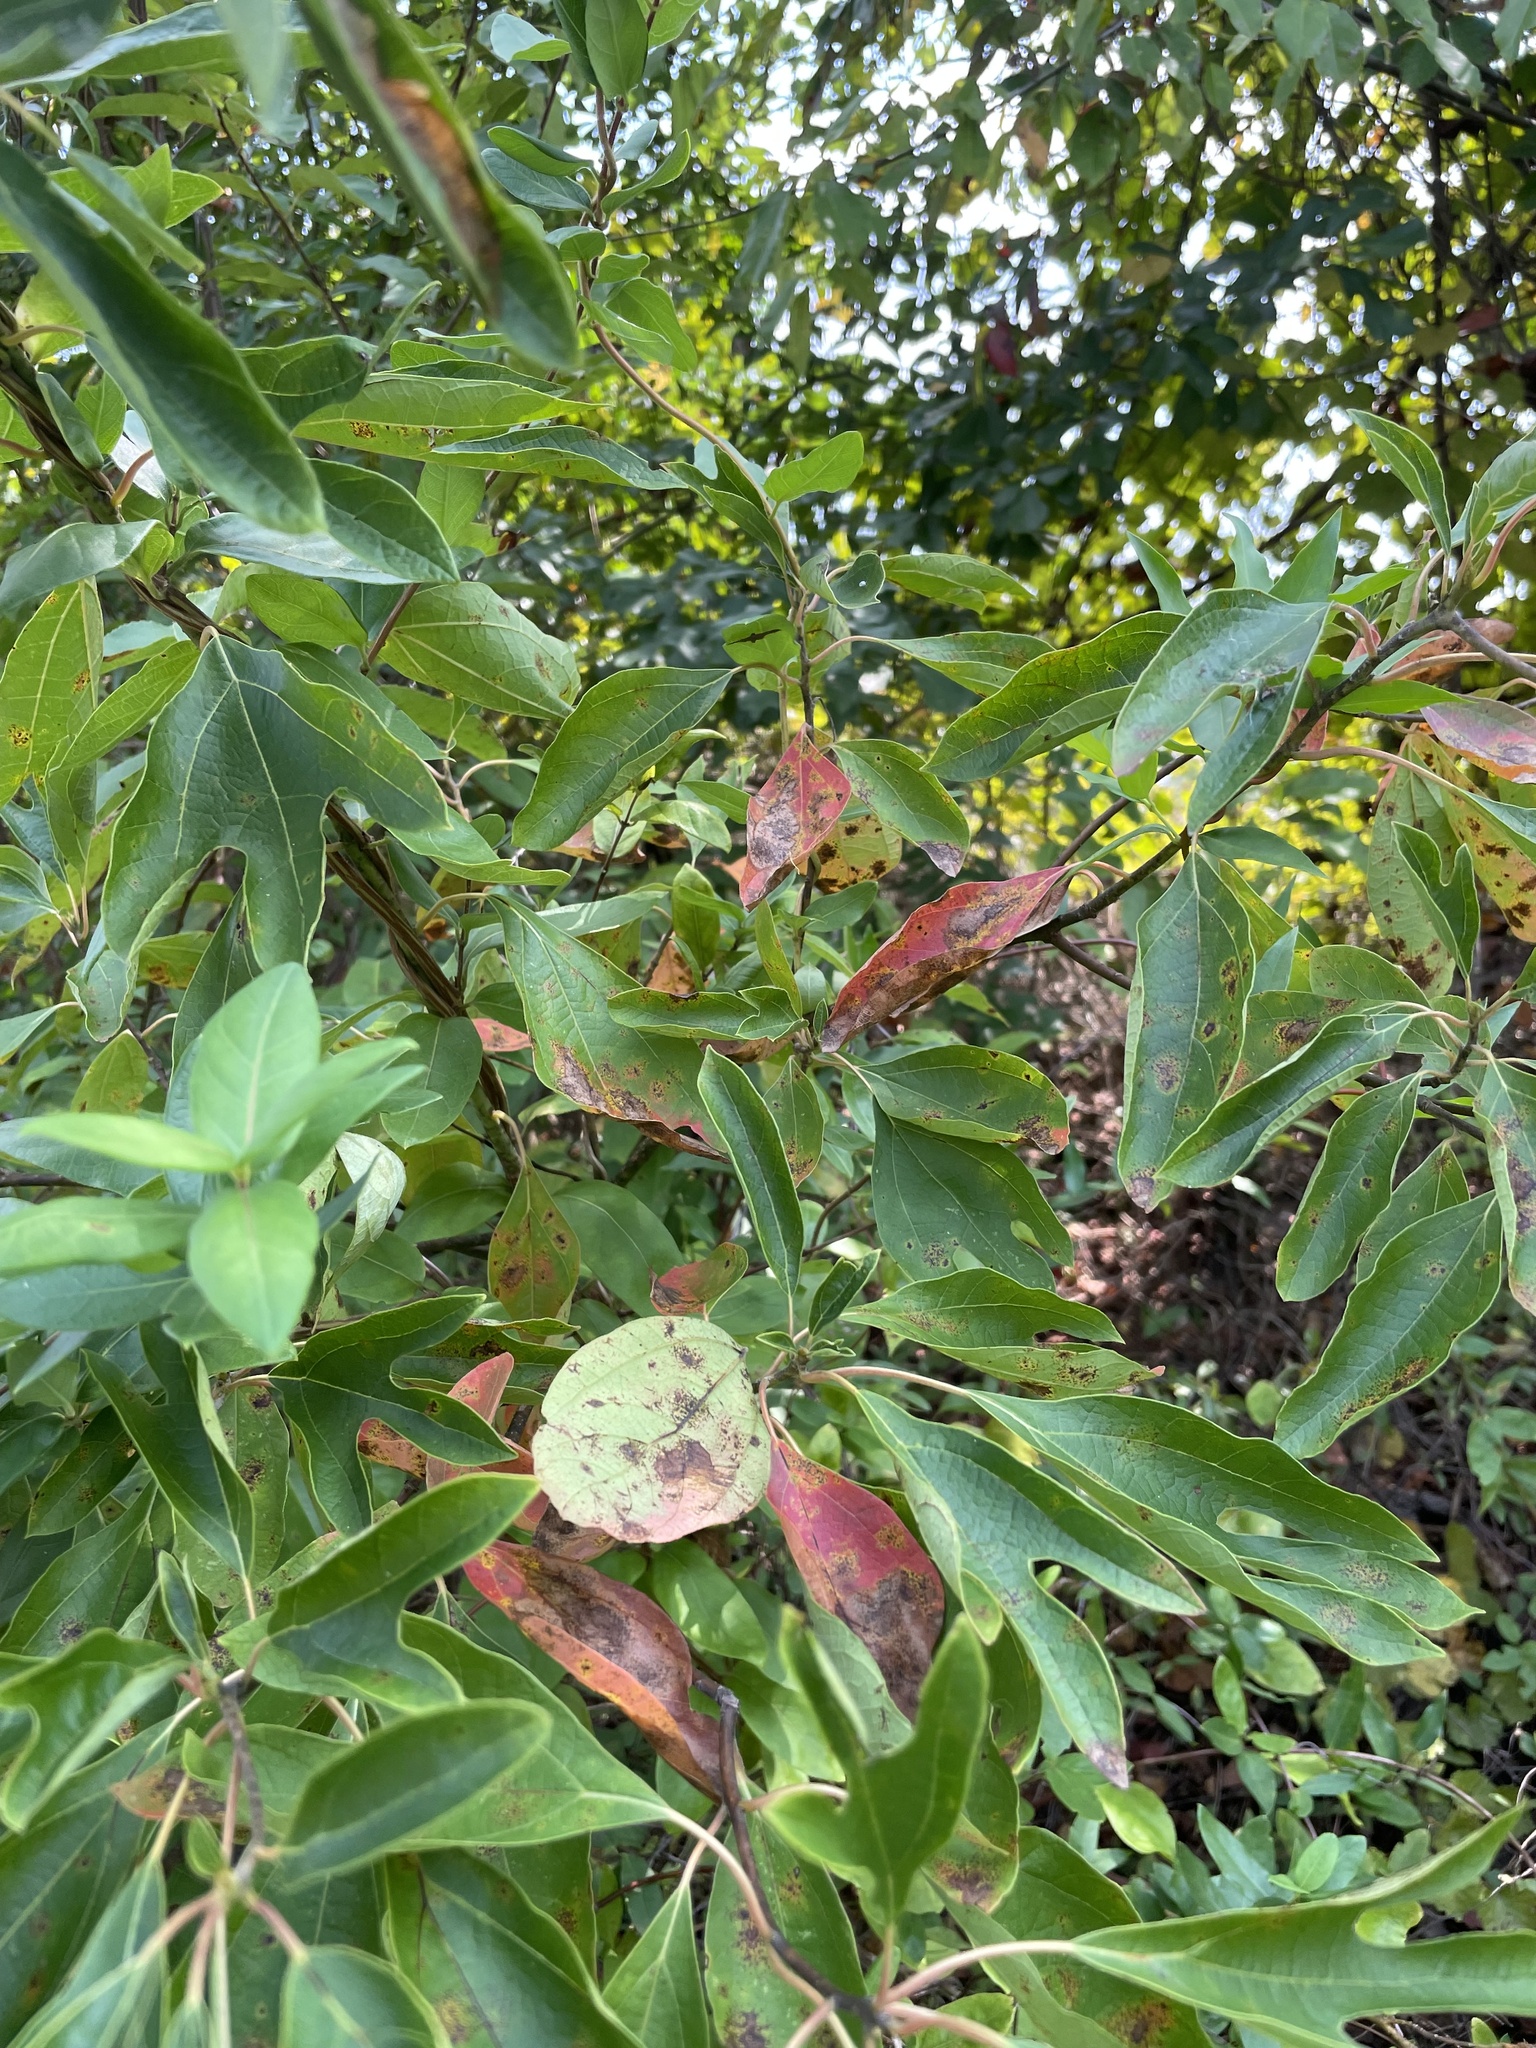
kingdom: Plantae
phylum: Tracheophyta
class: Magnoliopsida
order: Laurales
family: Lauraceae
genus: Sassafras
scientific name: Sassafras albidum
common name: Sassafras
